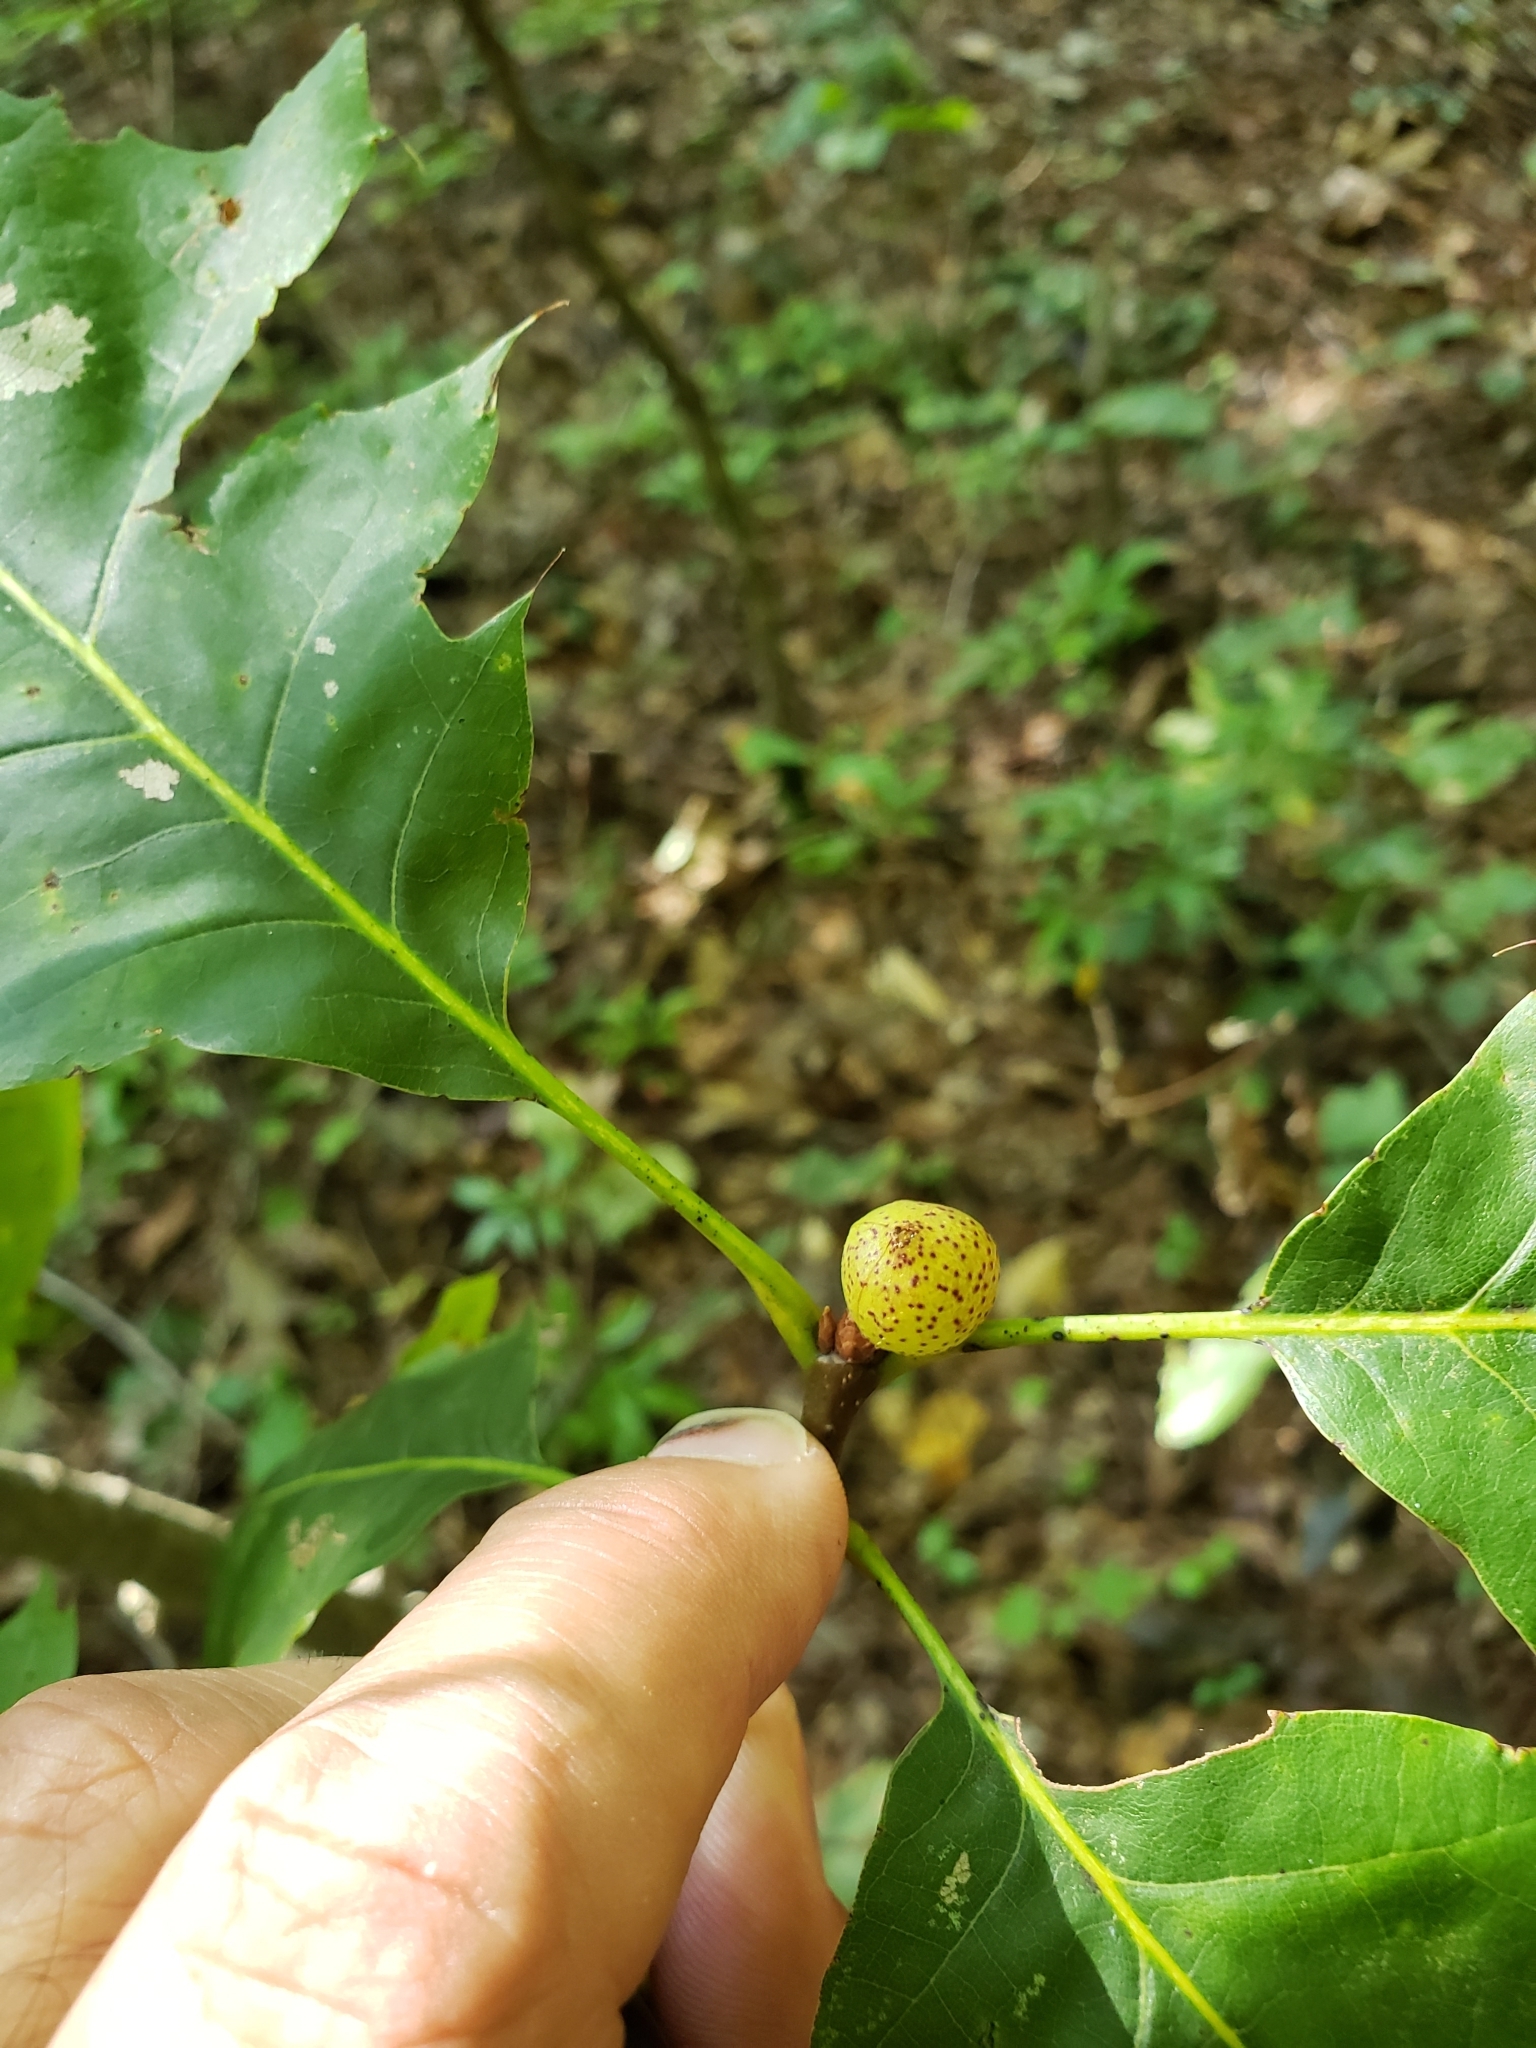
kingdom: Animalia
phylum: Arthropoda
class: Insecta
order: Hymenoptera
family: Cynipidae
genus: Amphibolips
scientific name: Amphibolips
